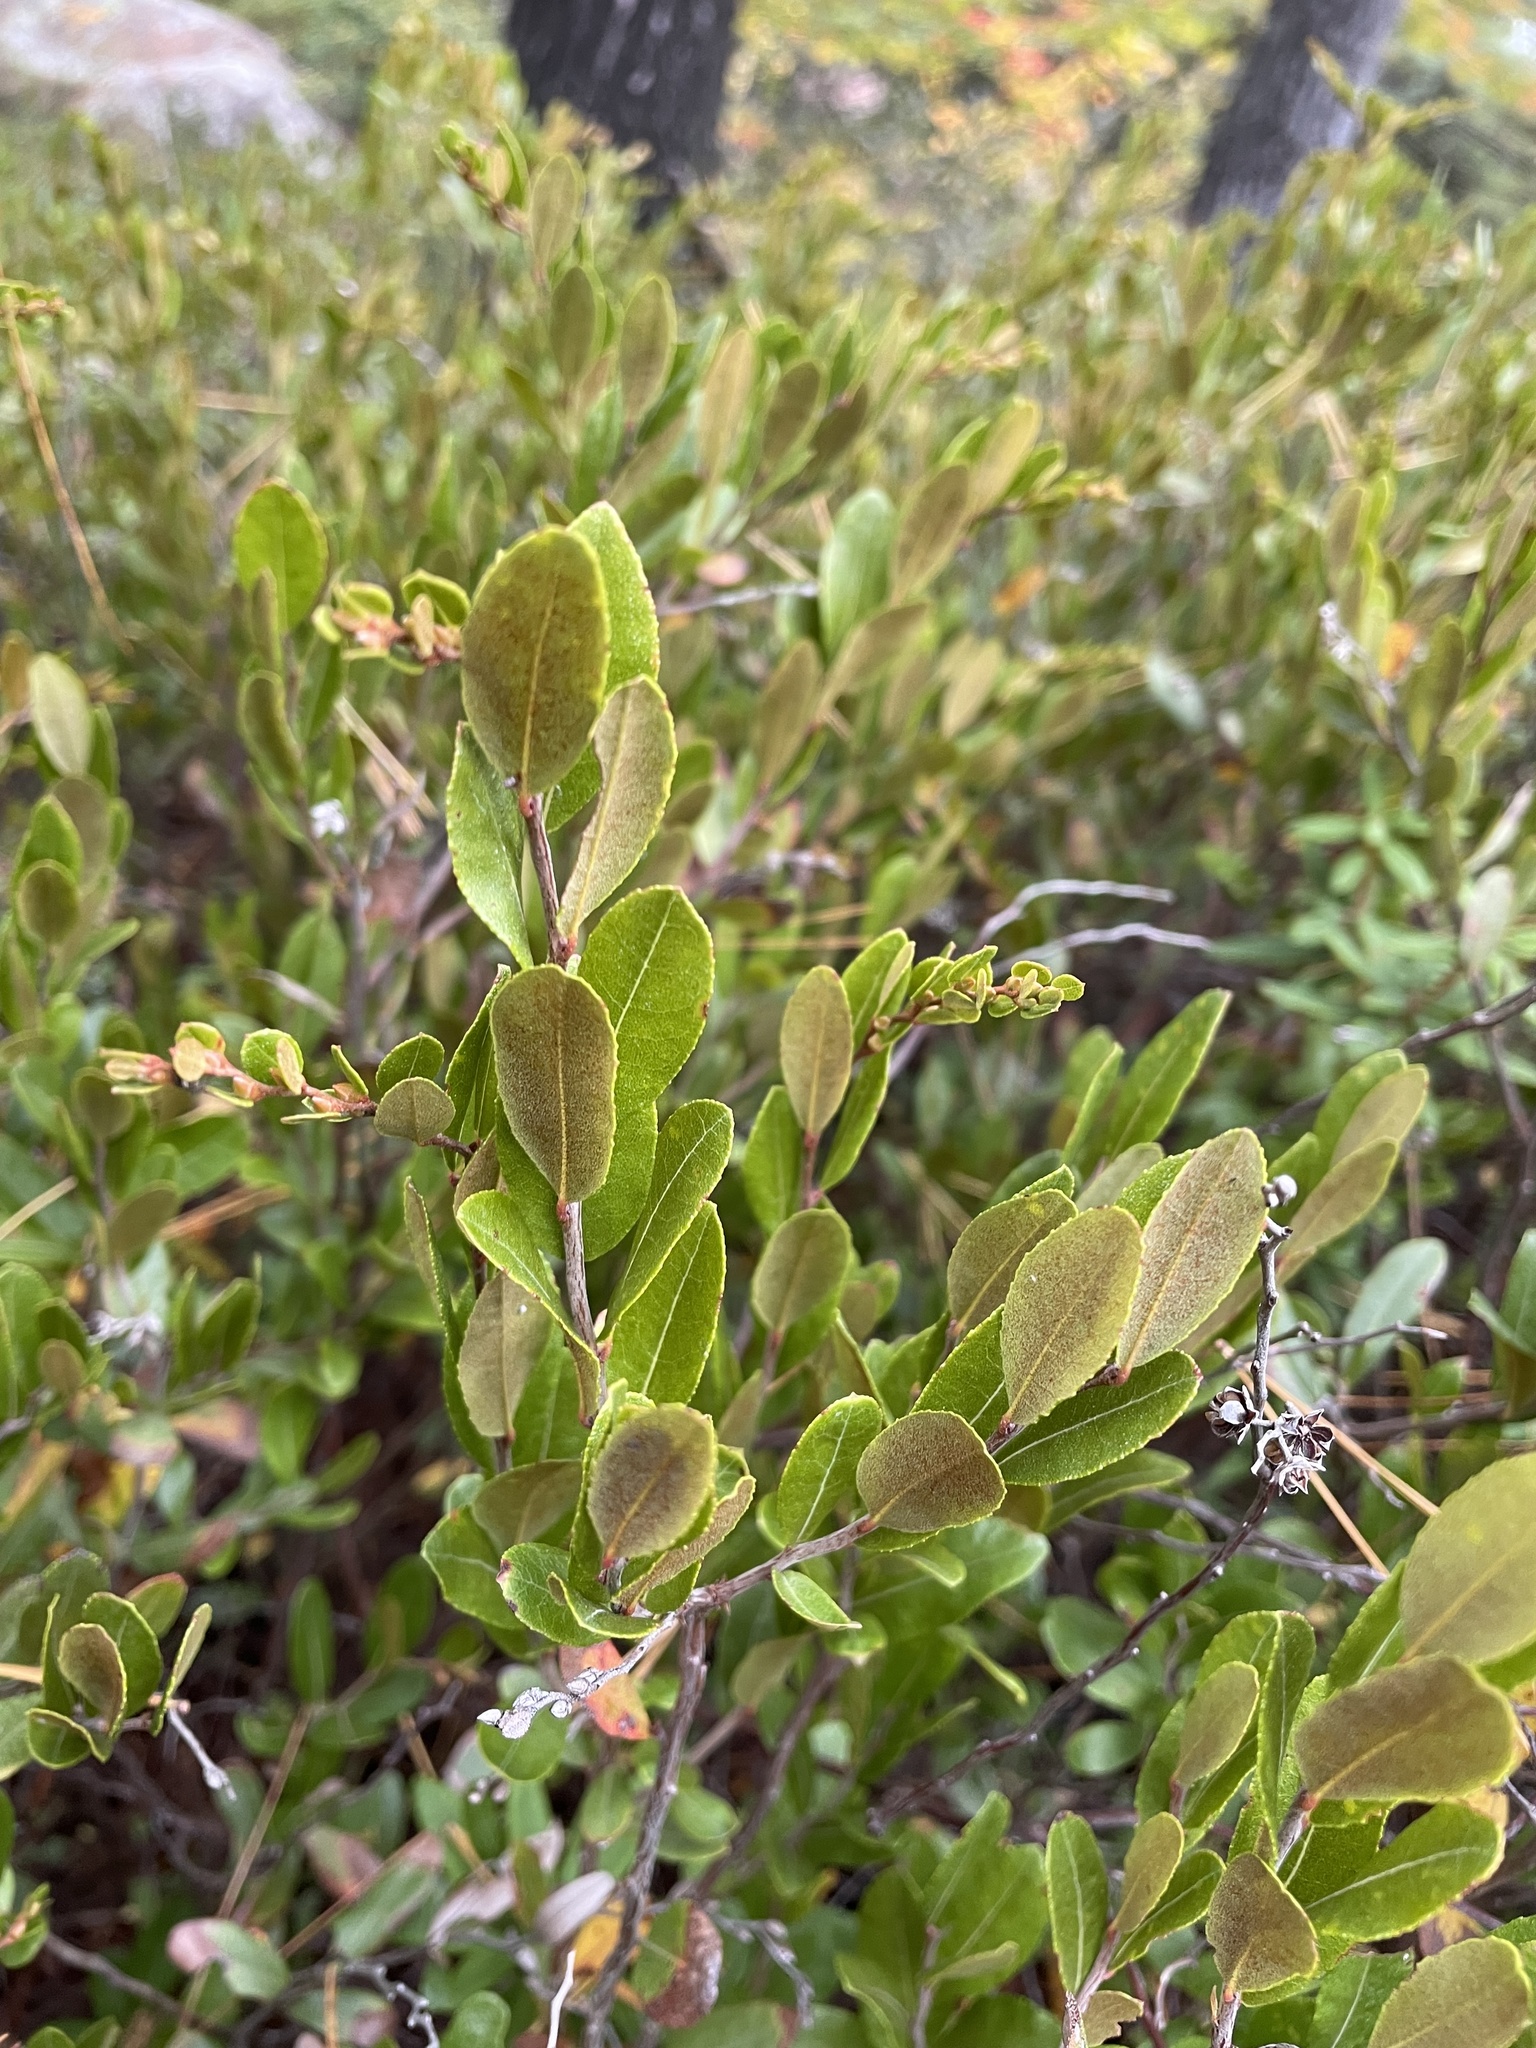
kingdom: Plantae
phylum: Tracheophyta
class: Magnoliopsida
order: Ericales
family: Ericaceae
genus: Chamaedaphne
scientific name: Chamaedaphne calyculata
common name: Leatherleaf
